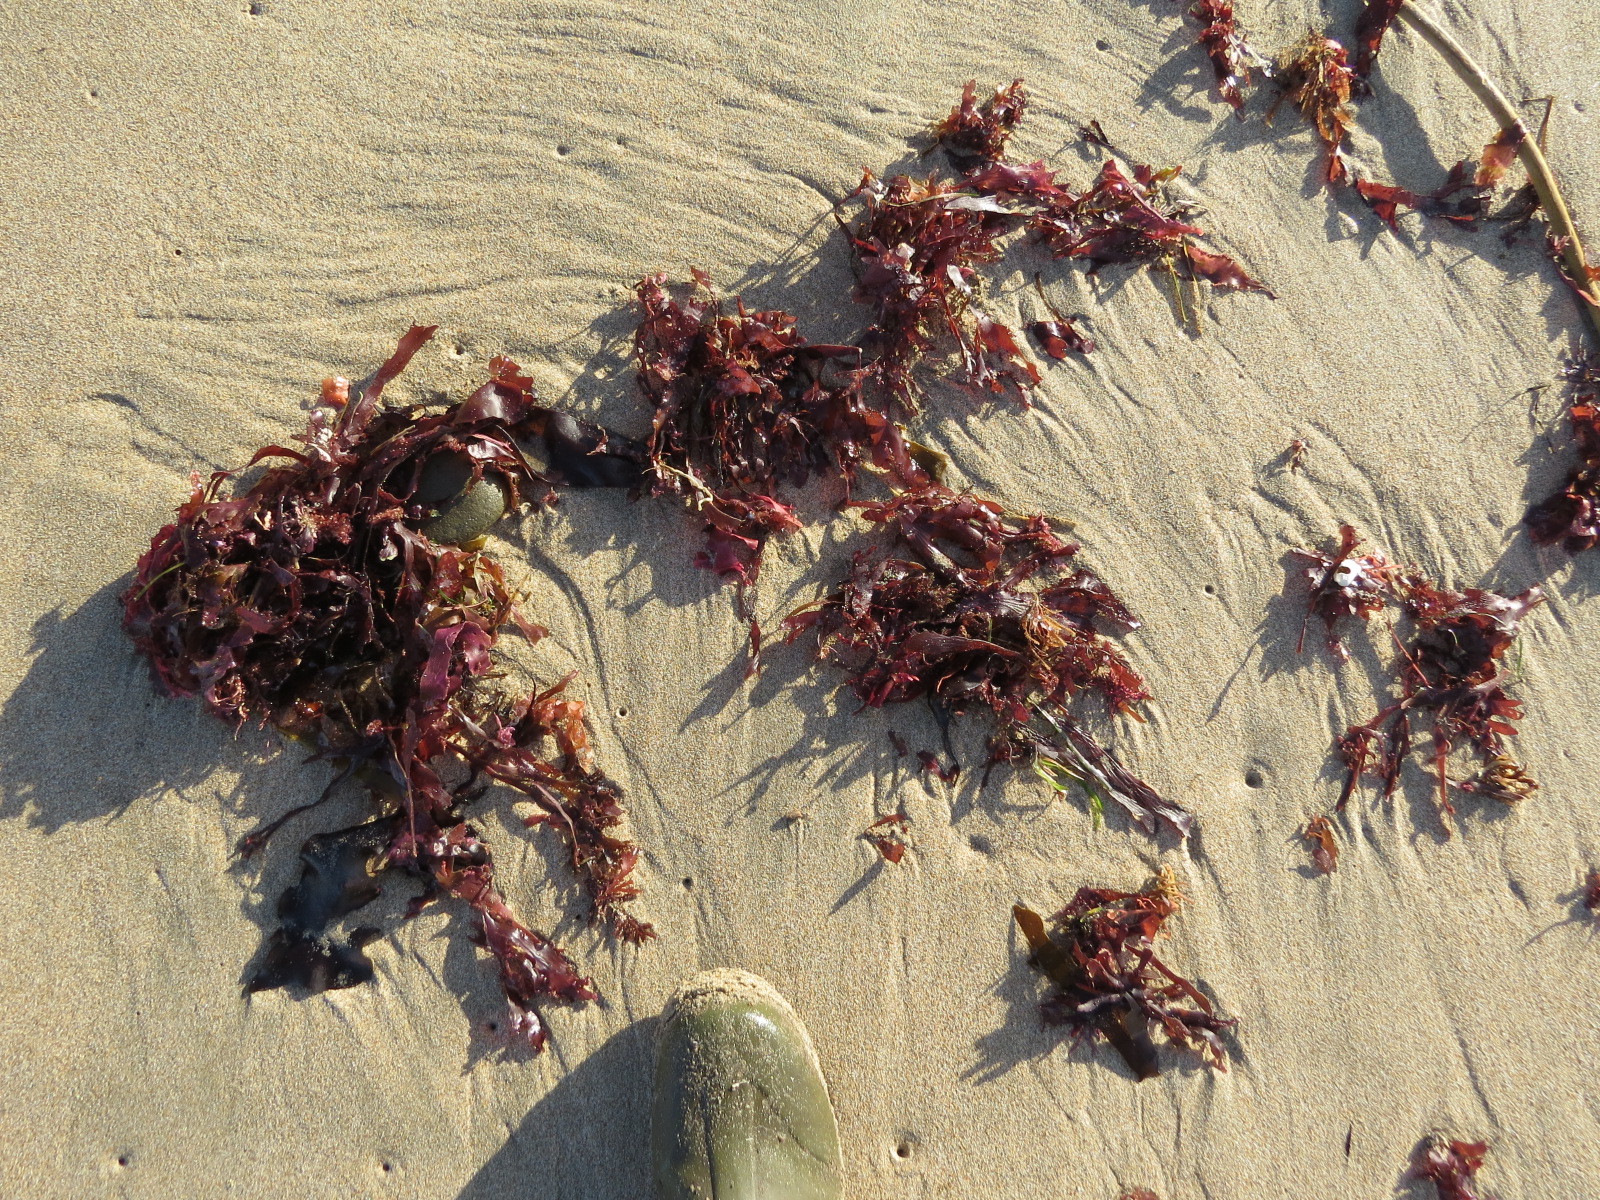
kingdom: Plantae
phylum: Rhodophyta
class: Florideophyceae
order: Ceramiales
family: Delesseriaceae
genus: Cryptopleura
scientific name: Cryptopleura ruprechtiana
